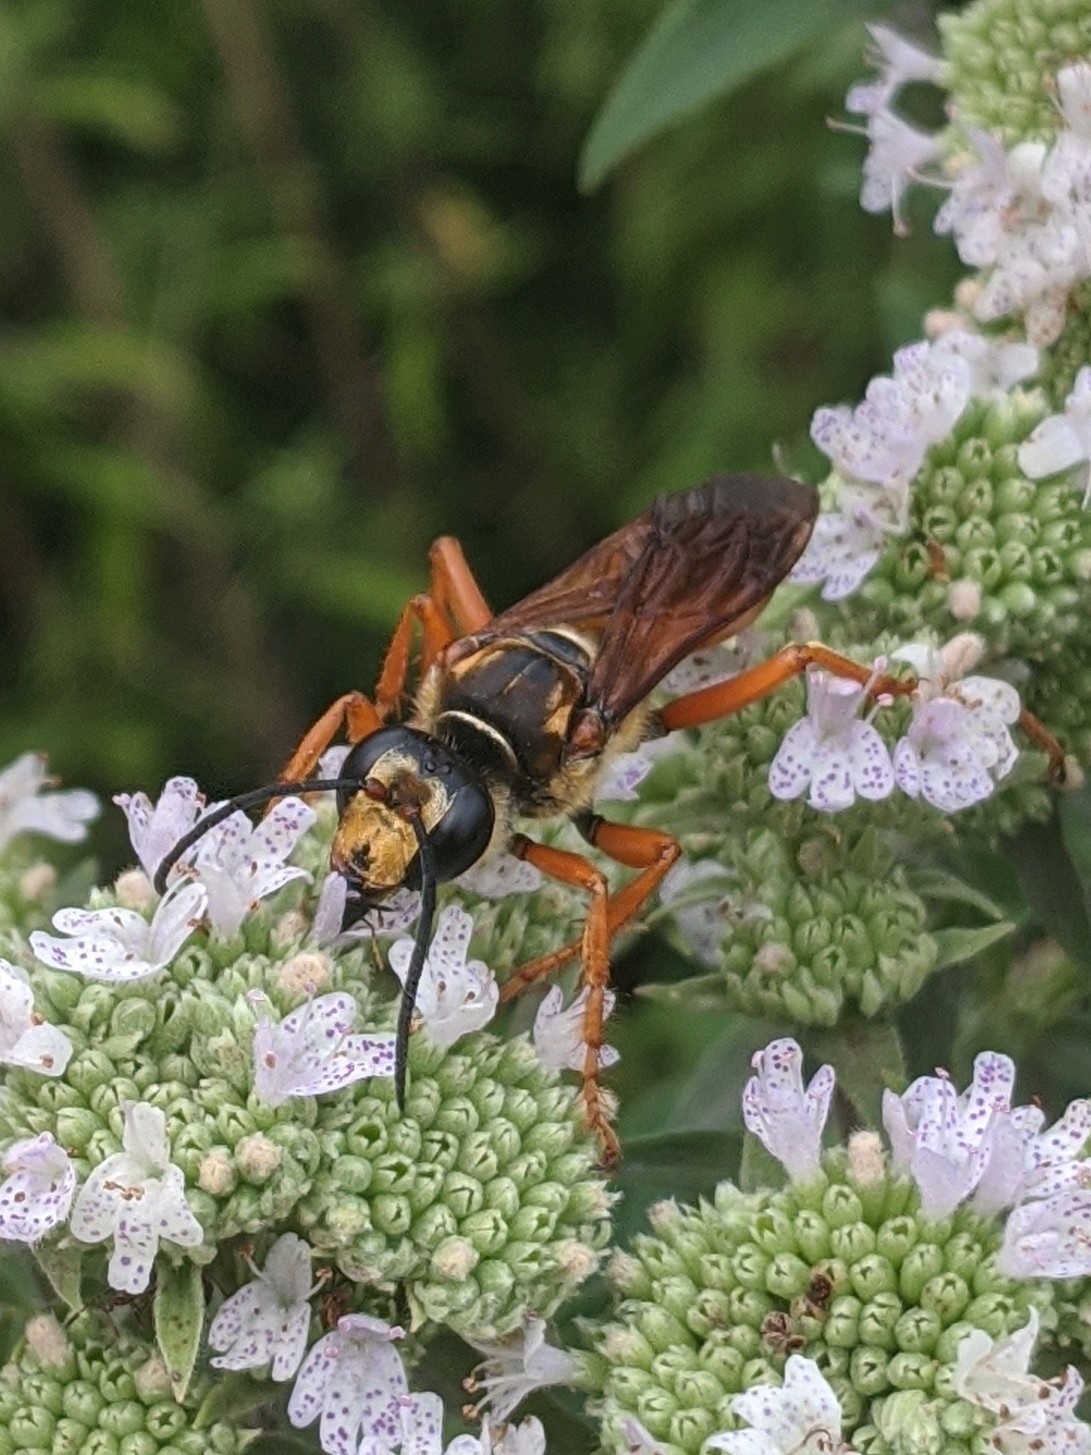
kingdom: Animalia
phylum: Arthropoda
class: Insecta
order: Hymenoptera
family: Sphecidae
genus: Sphex
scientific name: Sphex ichneumoneus
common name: Great golden digger wasp
